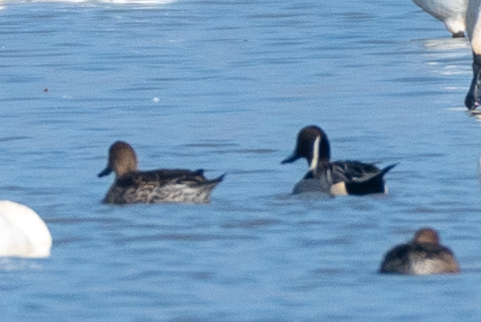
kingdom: Animalia
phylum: Chordata
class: Aves
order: Anseriformes
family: Anatidae
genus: Anas
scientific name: Anas acuta
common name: Northern pintail
